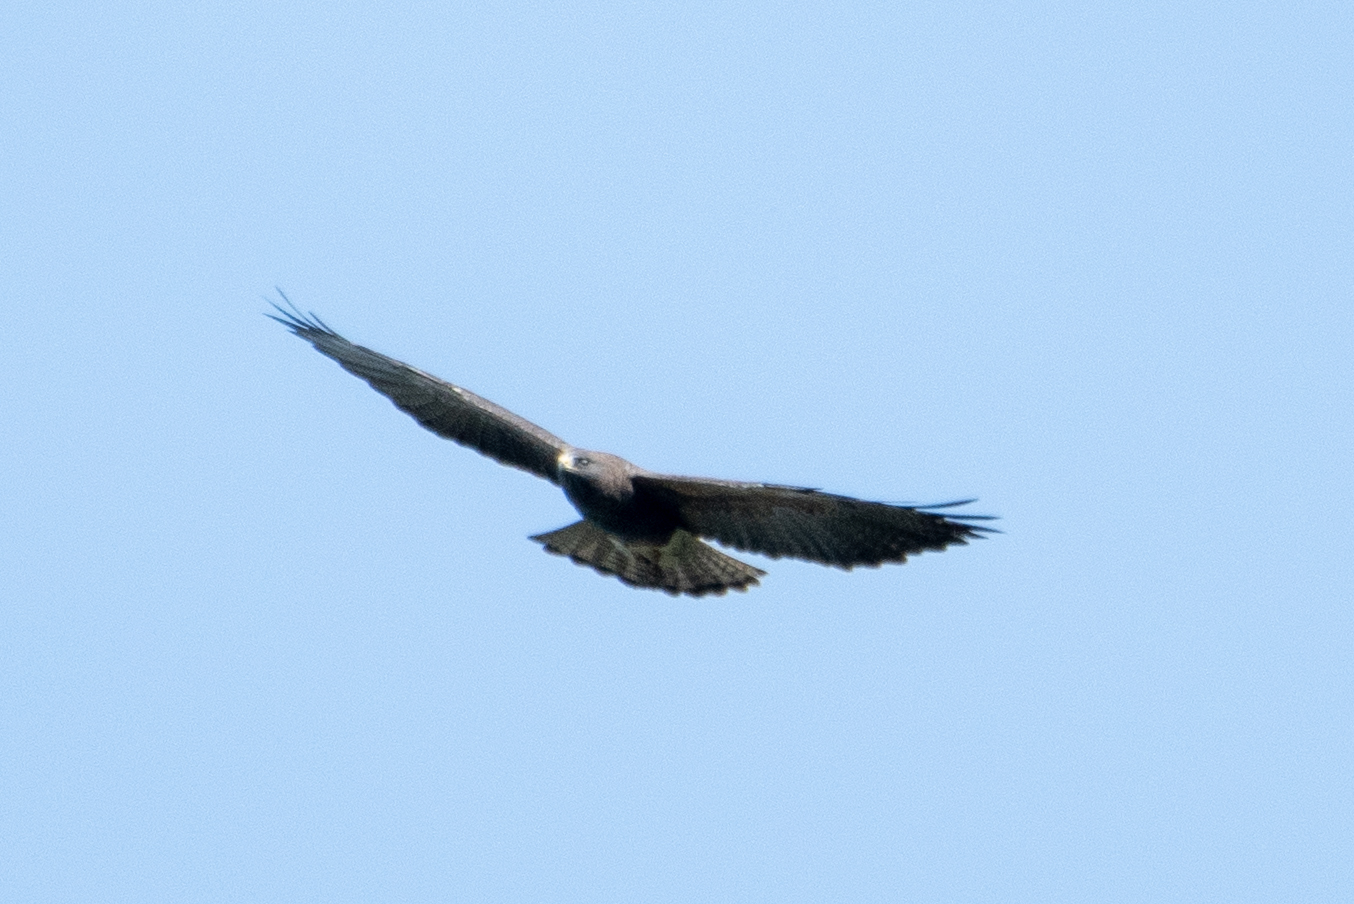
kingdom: Animalia
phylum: Chordata
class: Aves
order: Accipitriformes
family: Accipitridae
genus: Buteo
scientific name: Buteo swainsoni
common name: Swainson's hawk
